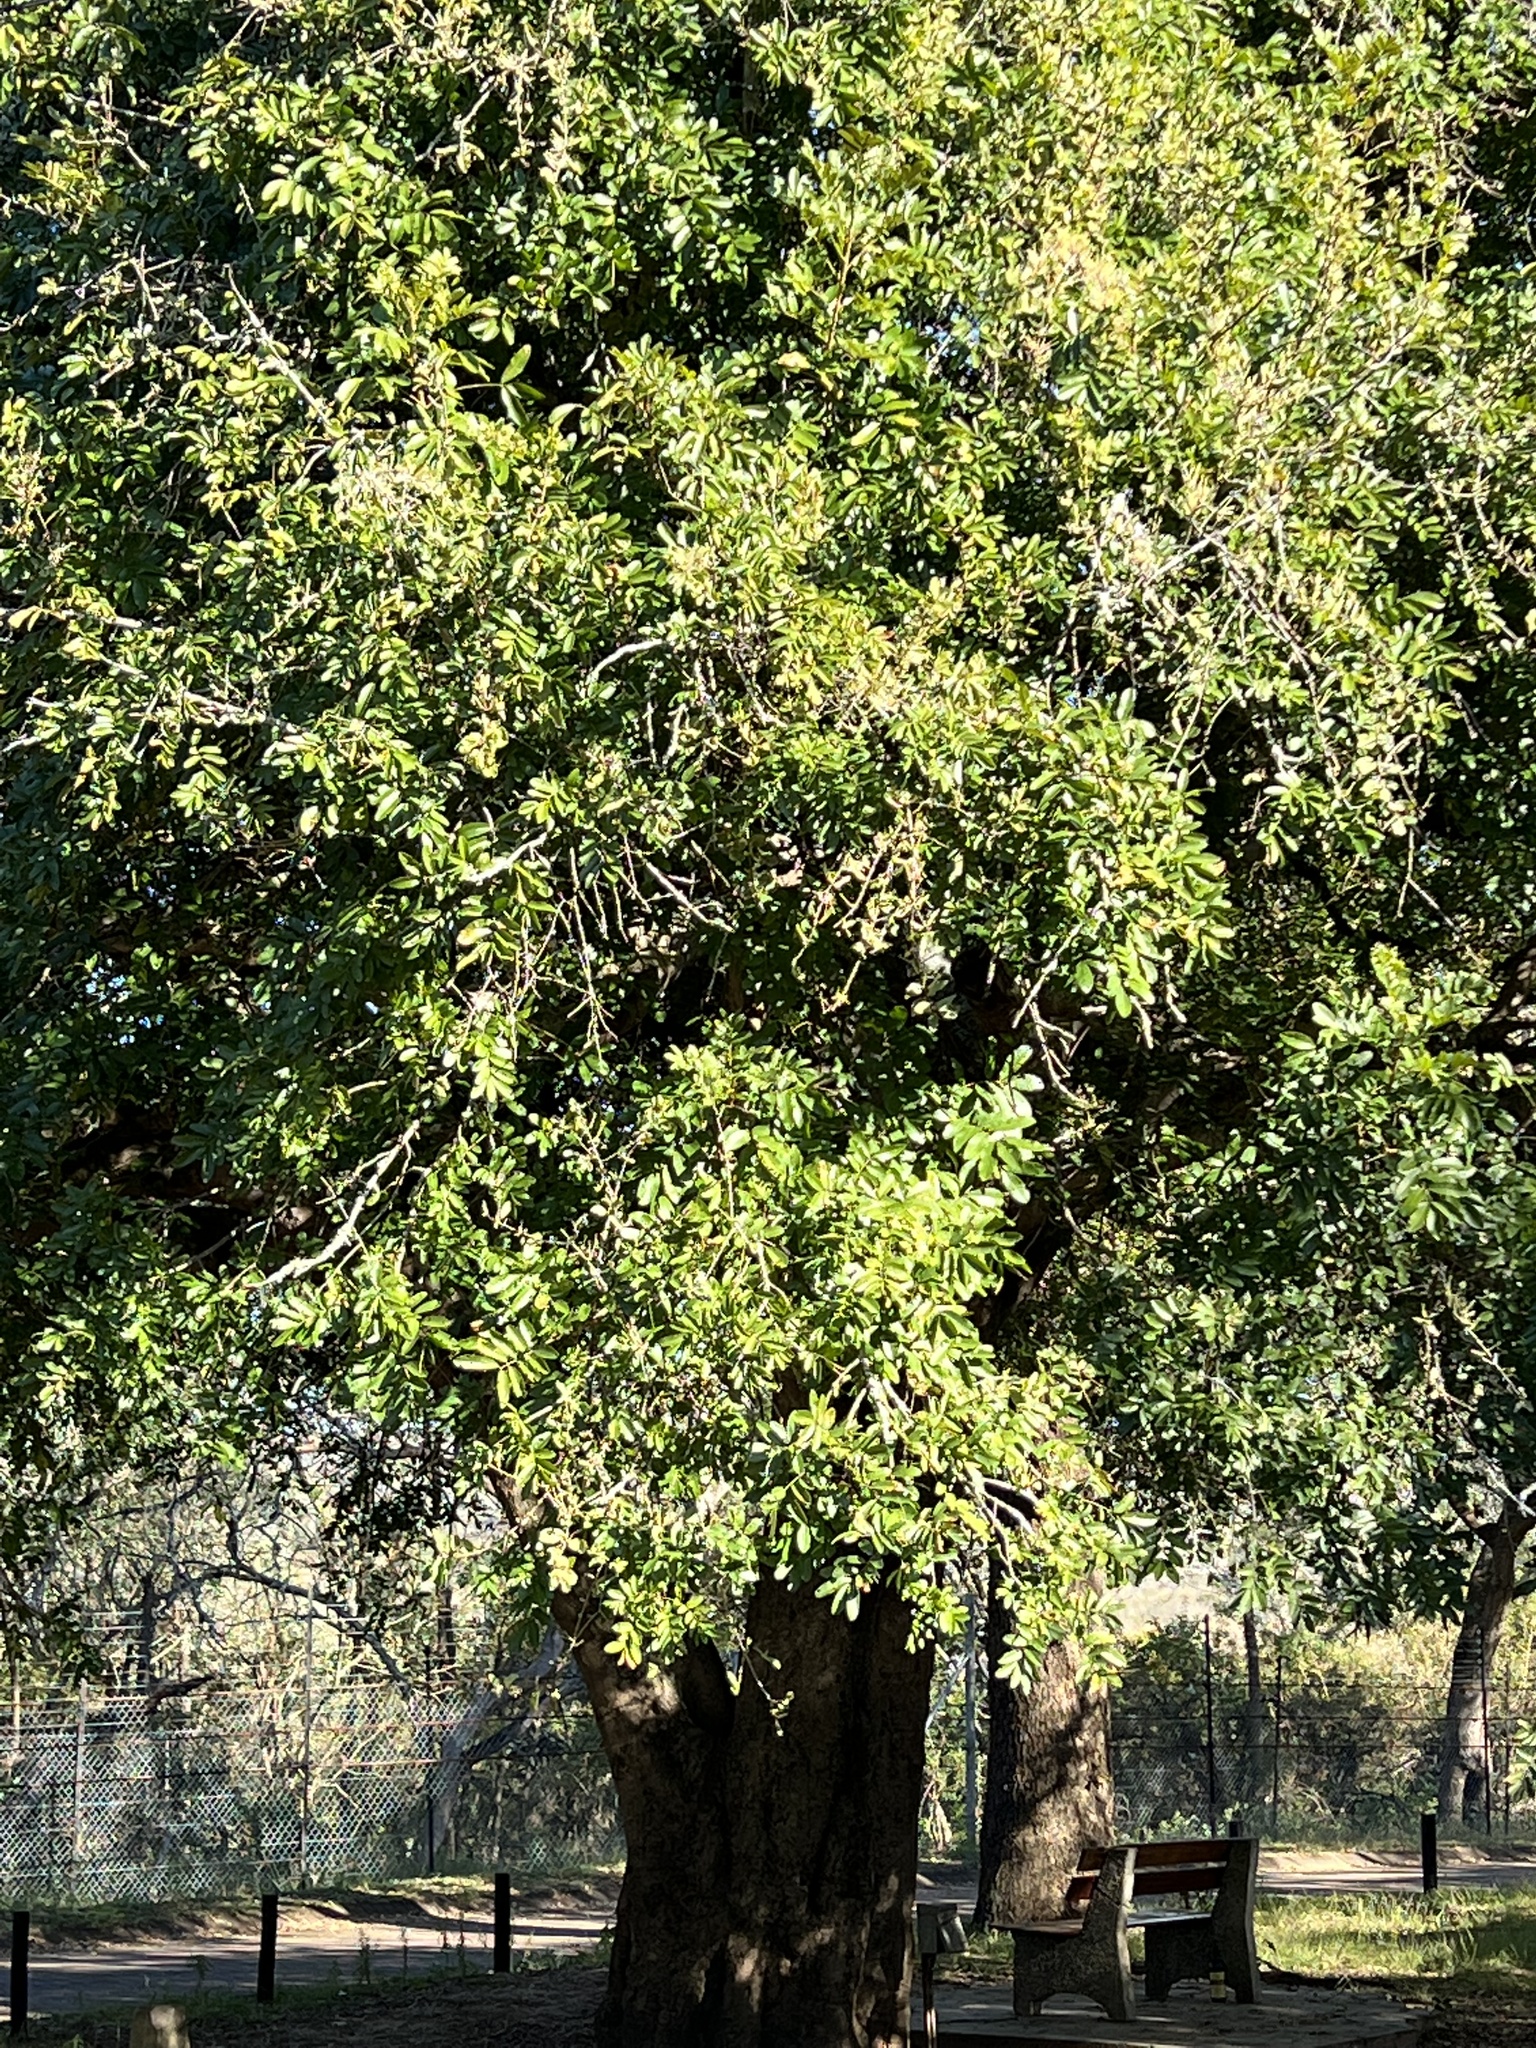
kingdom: Plantae
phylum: Tracheophyta
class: Magnoliopsida
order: Sapindales
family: Meliaceae
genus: Trichilia
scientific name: Trichilia emetica
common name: Christmas-bells
